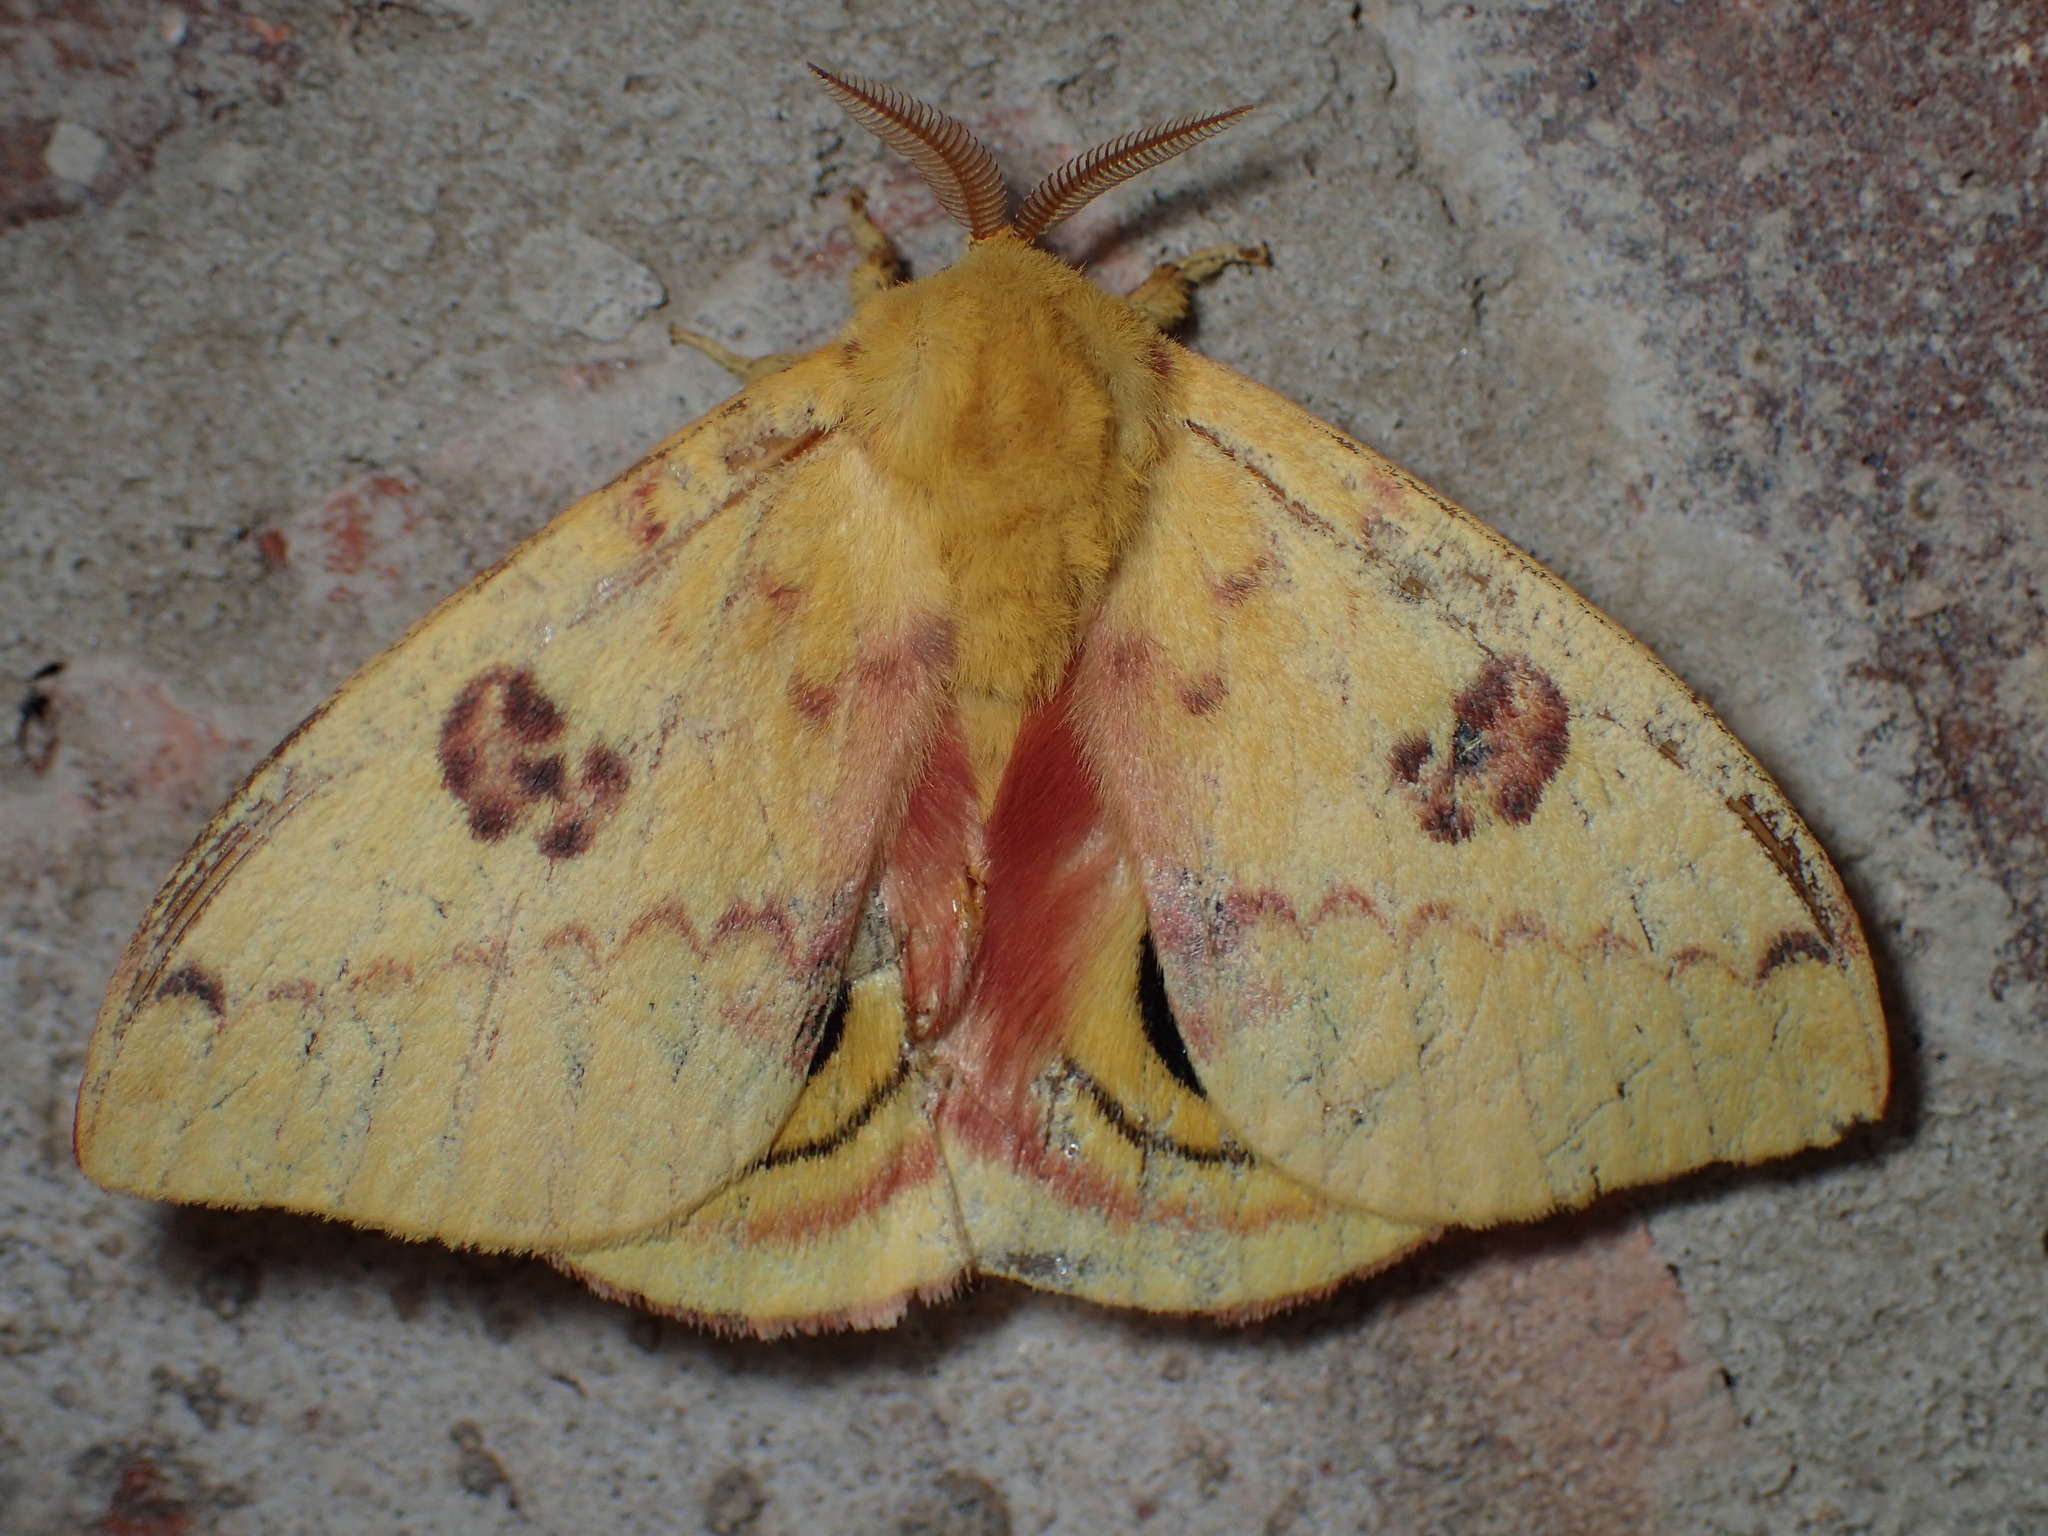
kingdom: Animalia
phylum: Arthropoda
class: Insecta
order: Lepidoptera
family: Saturniidae
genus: Automeris
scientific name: Automeris io
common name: Io moth
